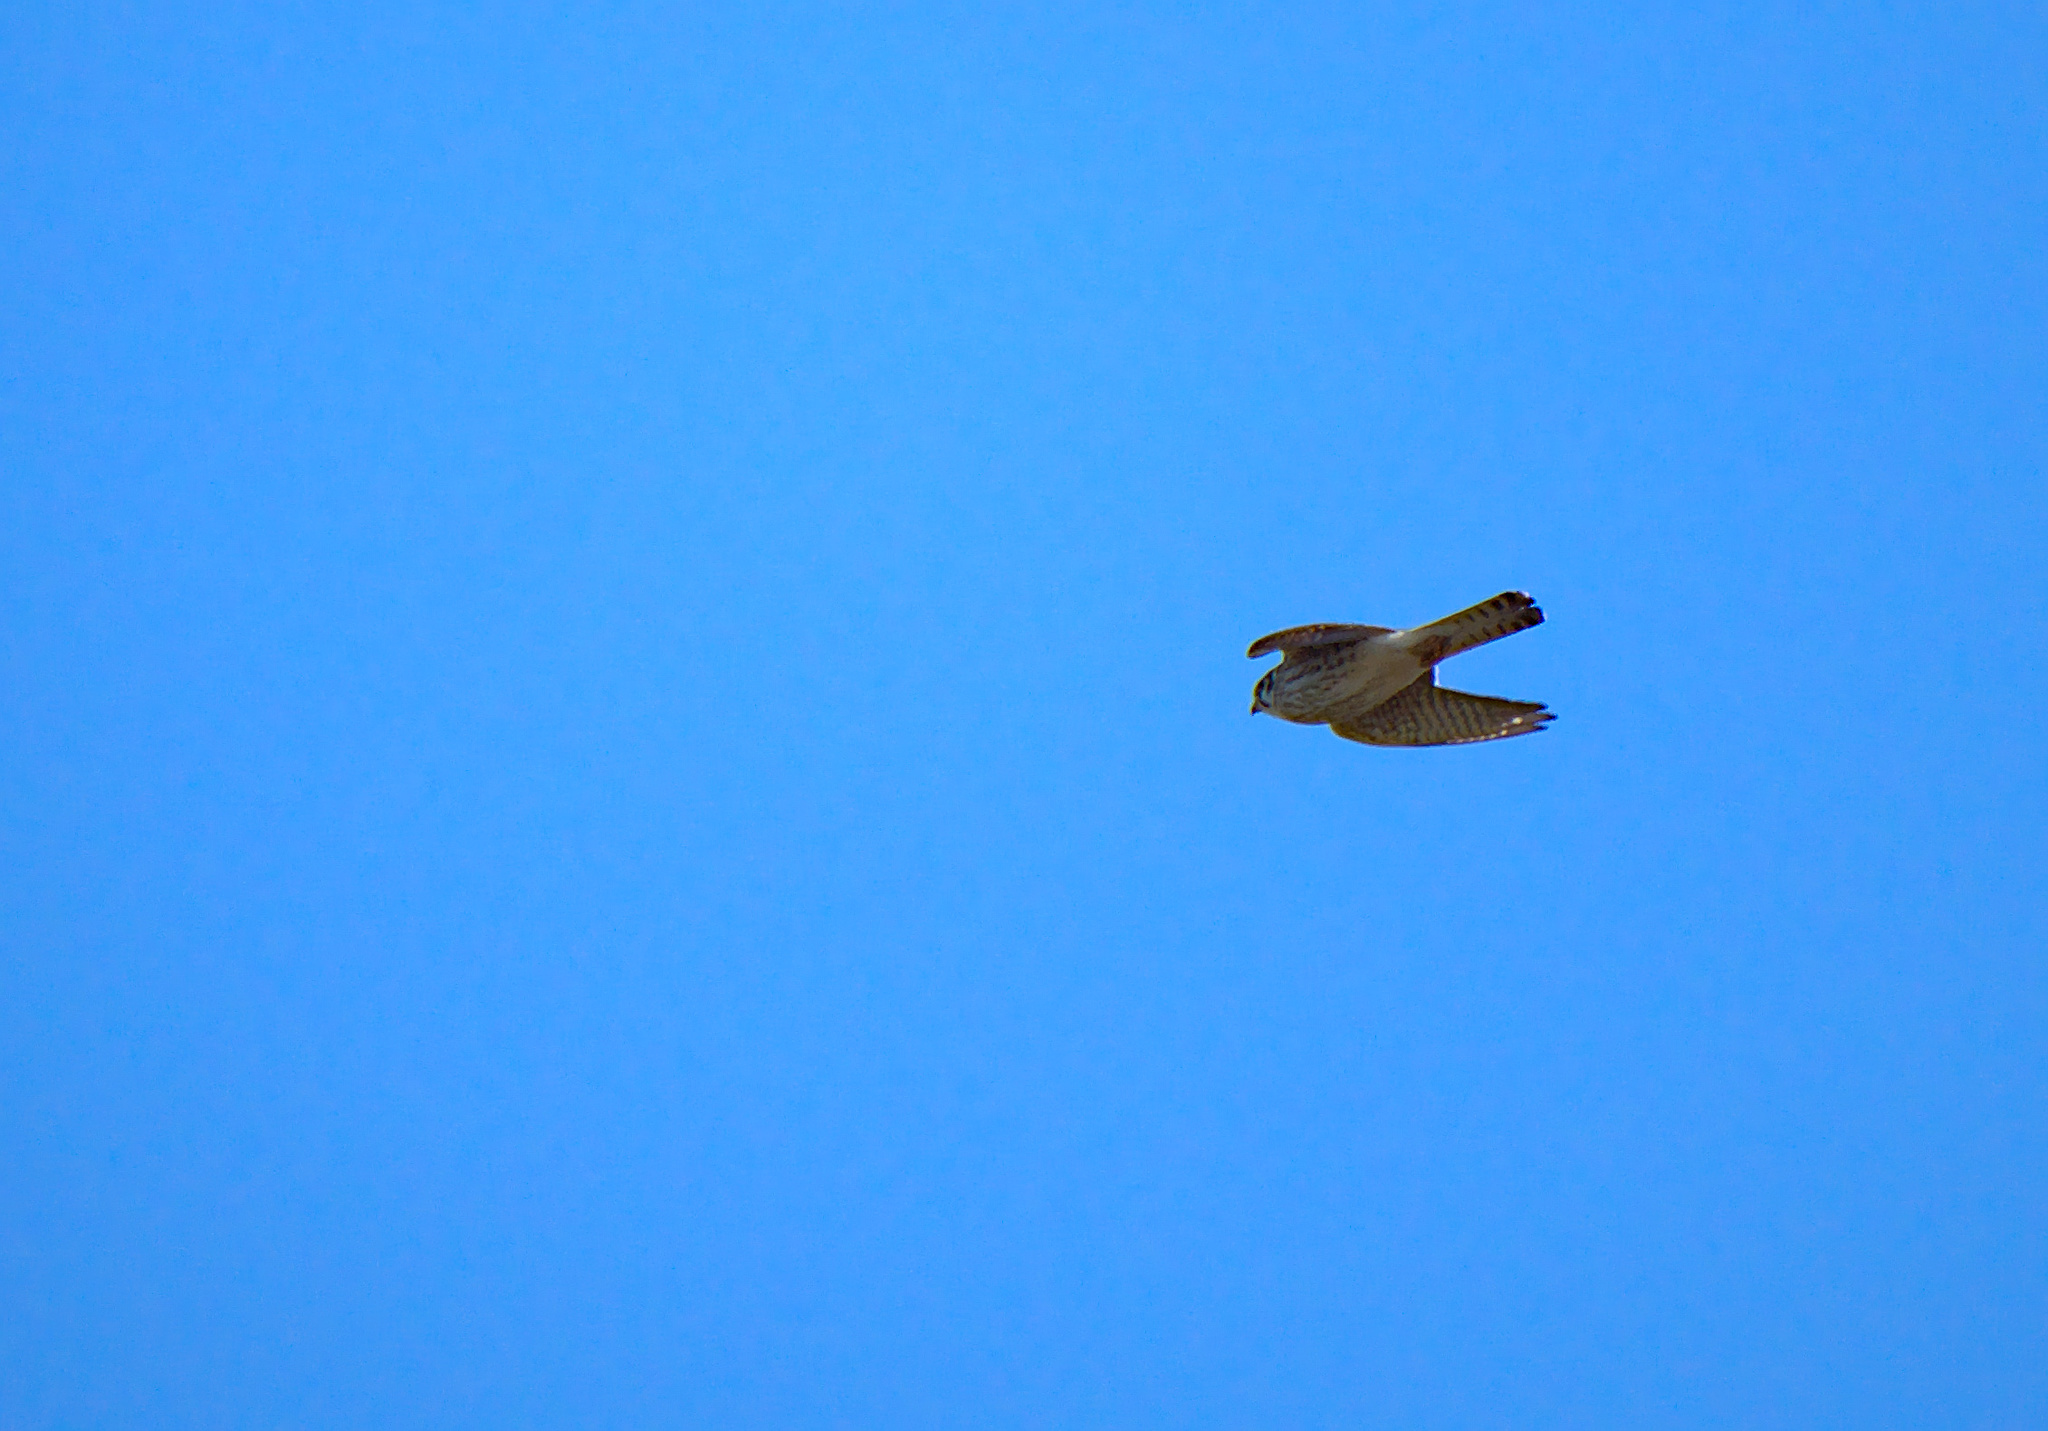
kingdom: Animalia
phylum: Chordata
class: Aves
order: Falconiformes
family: Falconidae
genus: Falco
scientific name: Falco sparverius
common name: American kestrel
